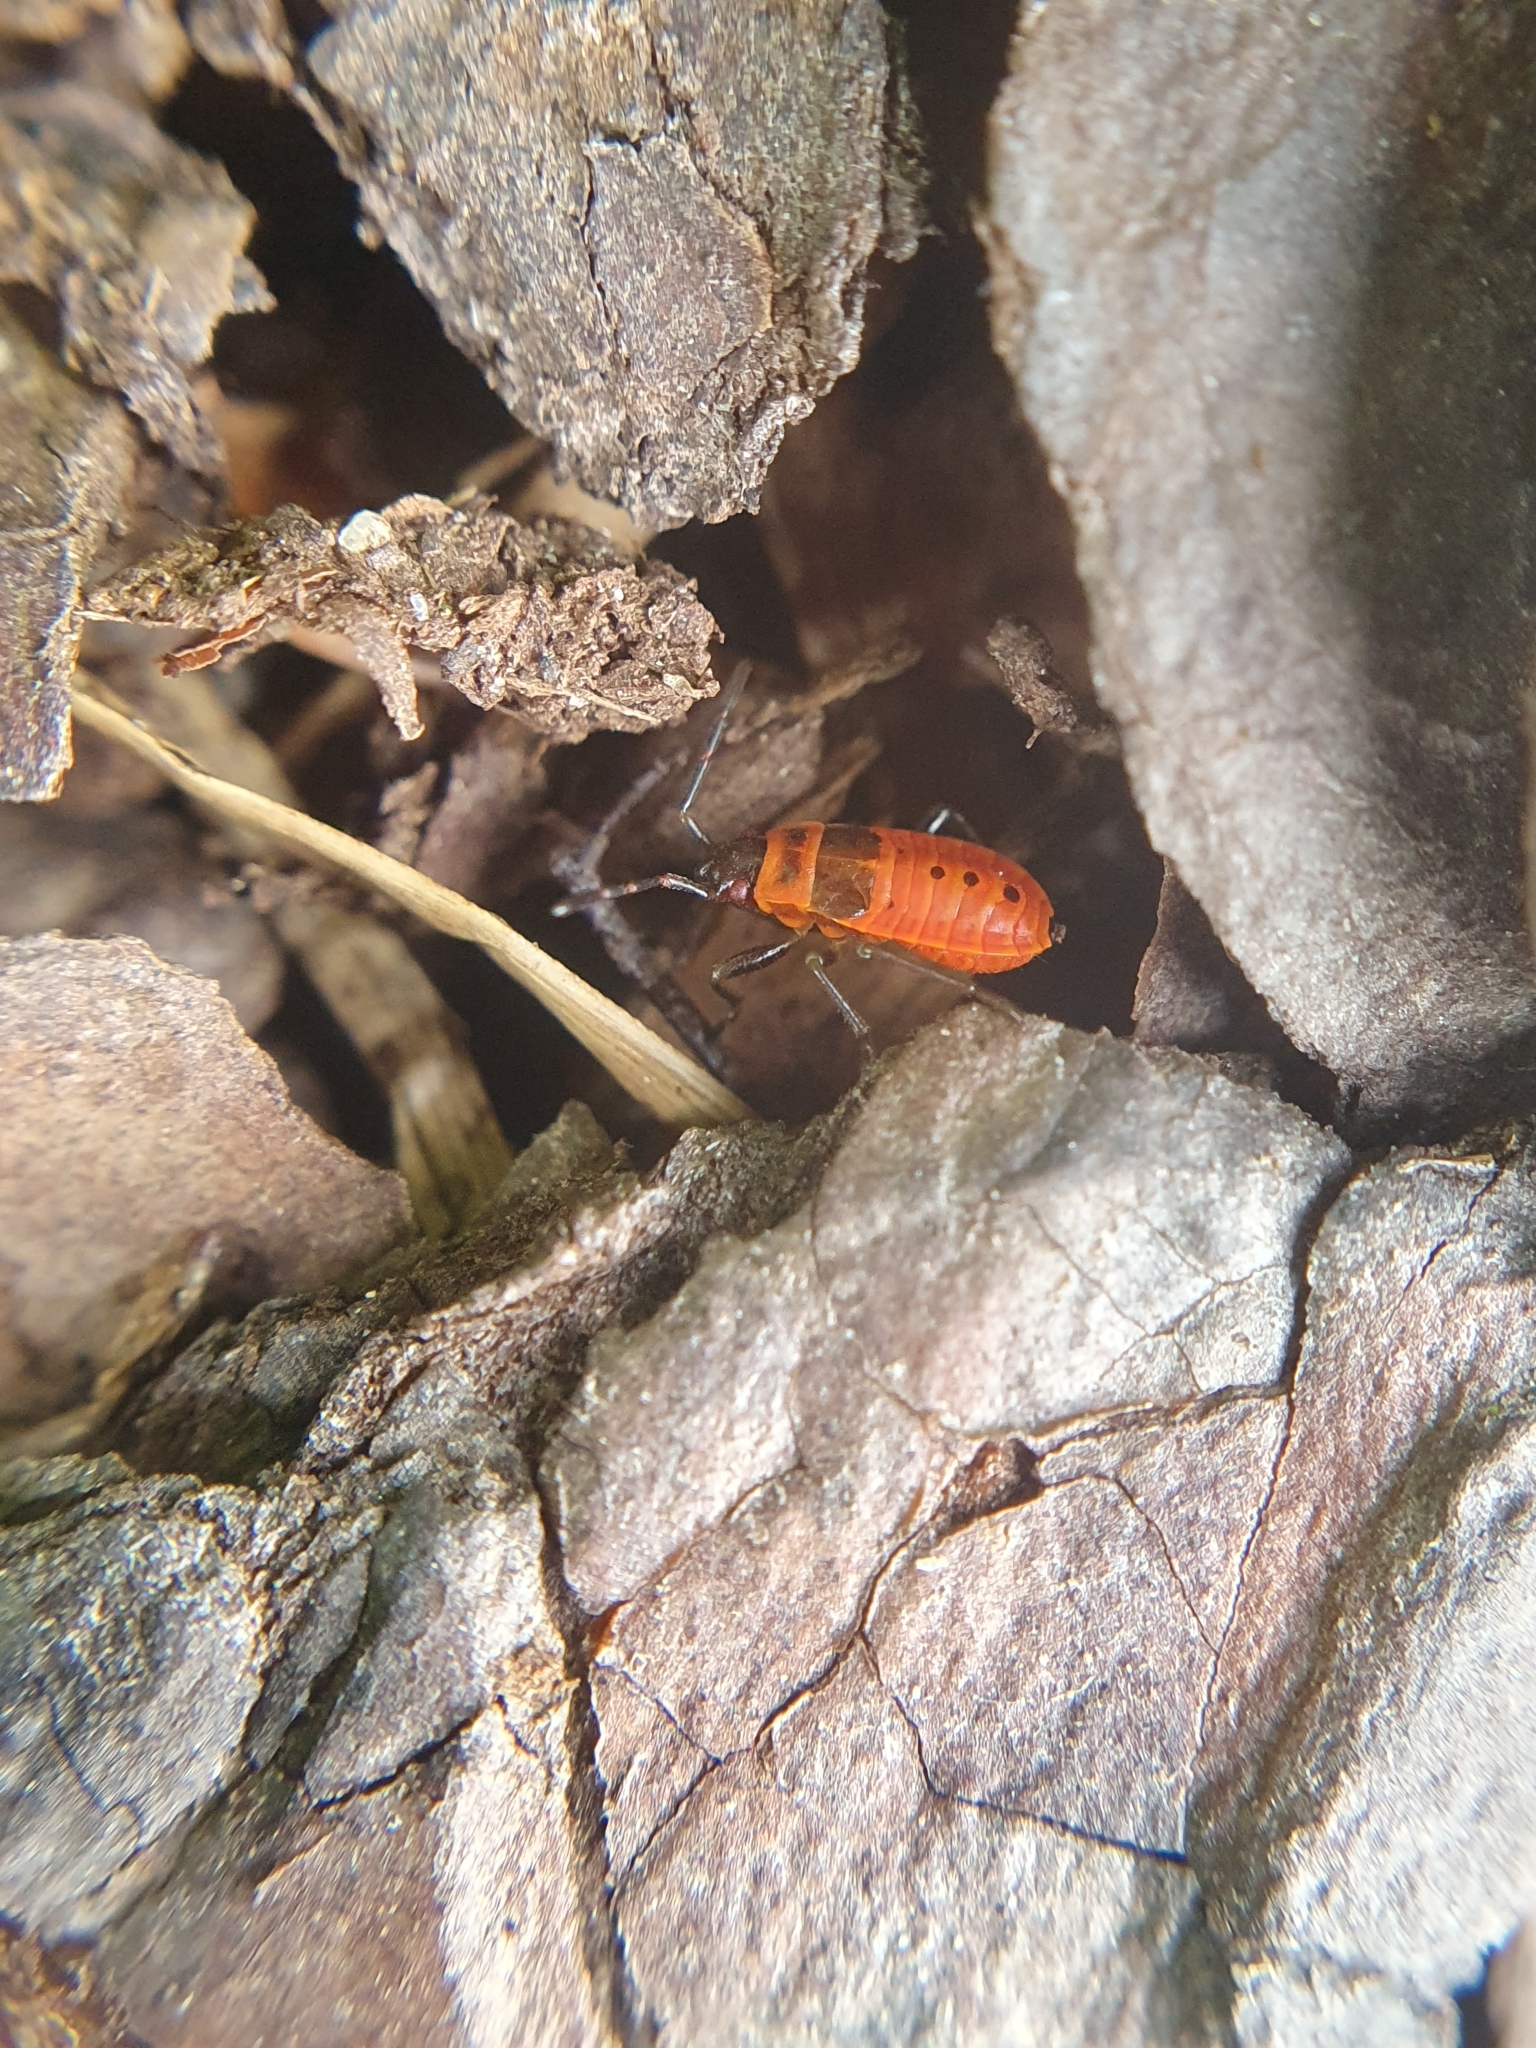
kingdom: Animalia
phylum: Arthropoda
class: Insecta
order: Hemiptera
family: Pyrrhocoridae
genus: Pyrrhocoris
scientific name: Pyrrhocoris apterus
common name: Firebug
